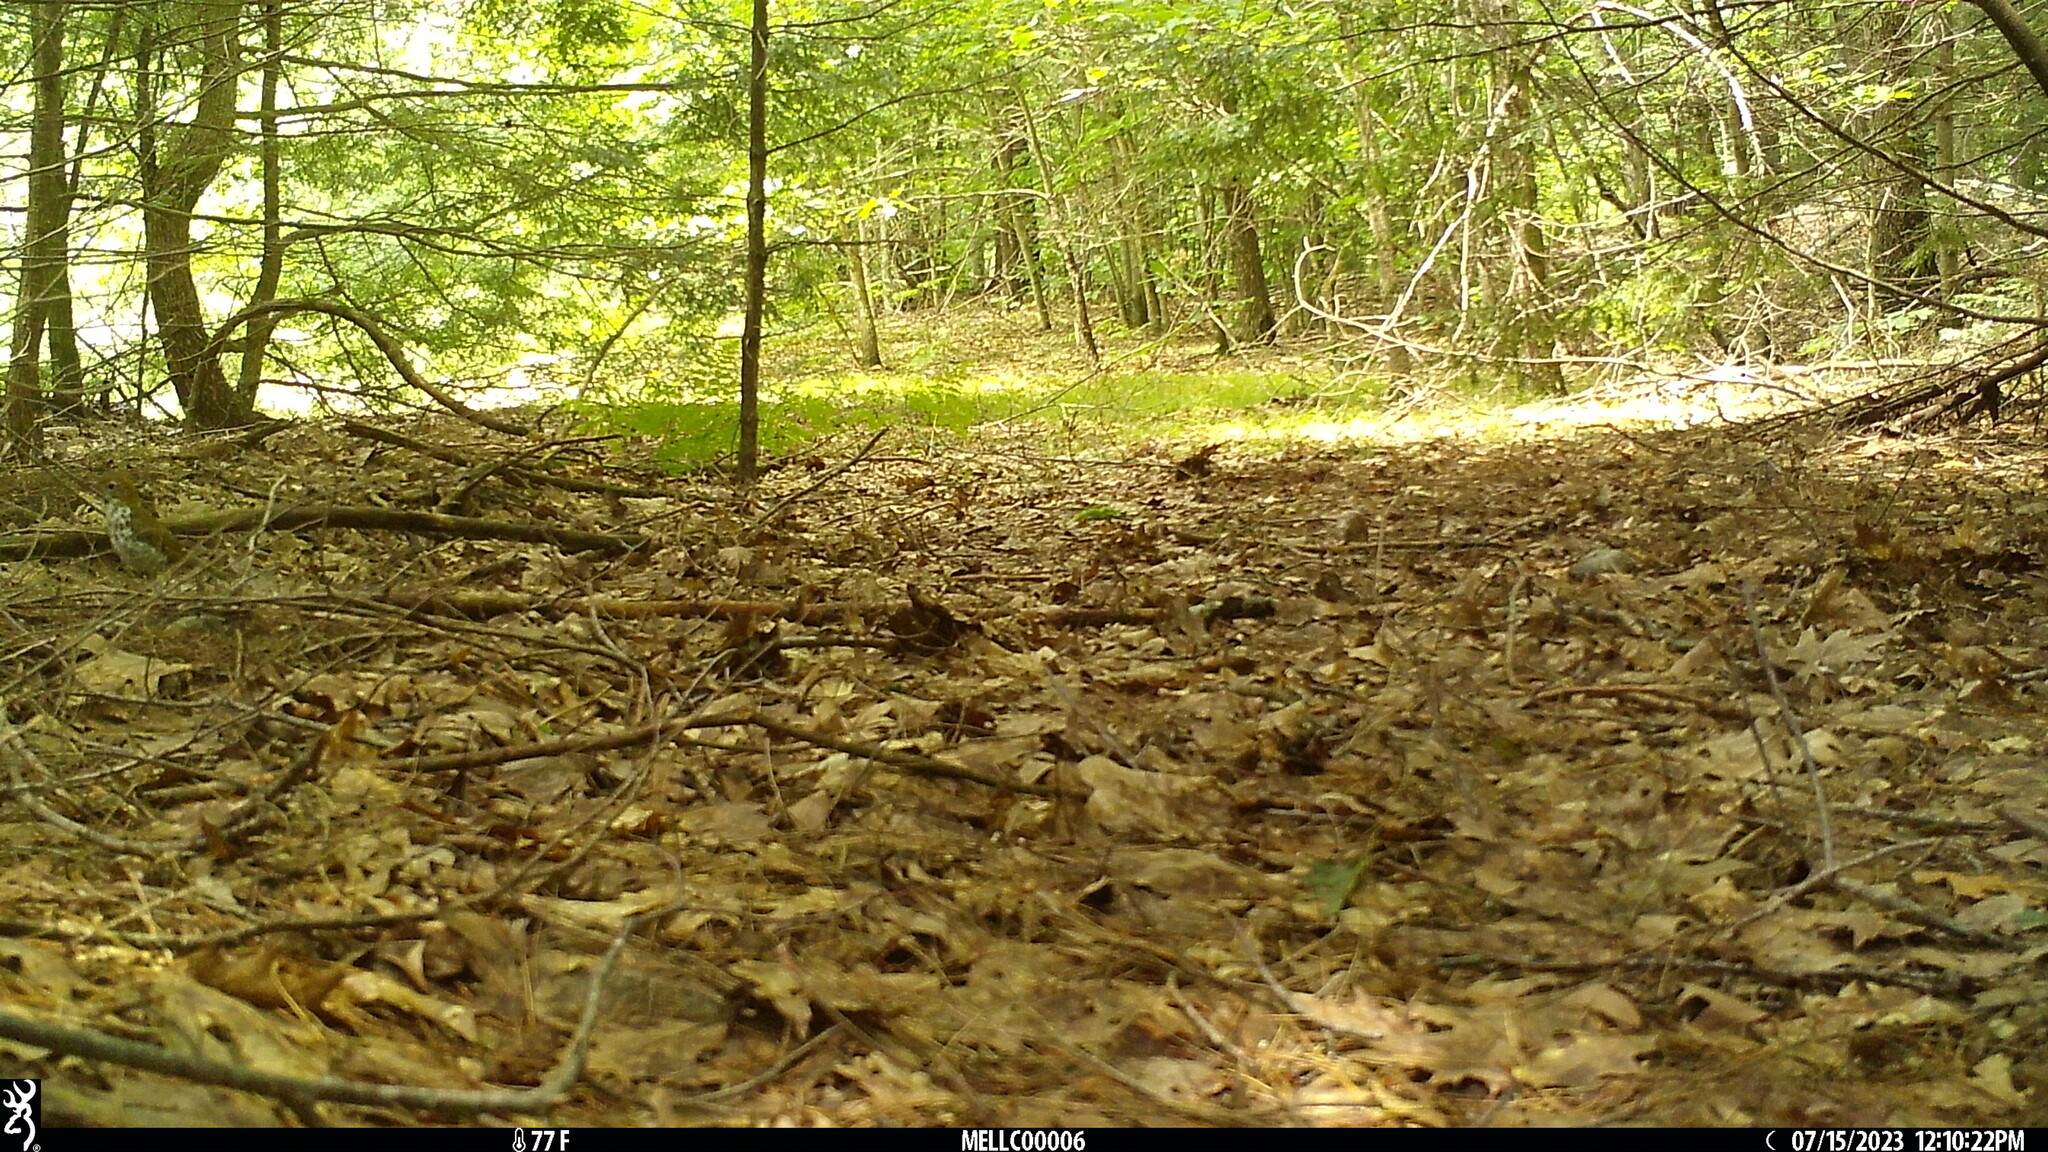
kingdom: Animalia
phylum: Chordata
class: Aves
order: Passeriformes
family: Turdidae
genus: Hylocichla
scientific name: Hylocichla mustelina
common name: Wood thrush
